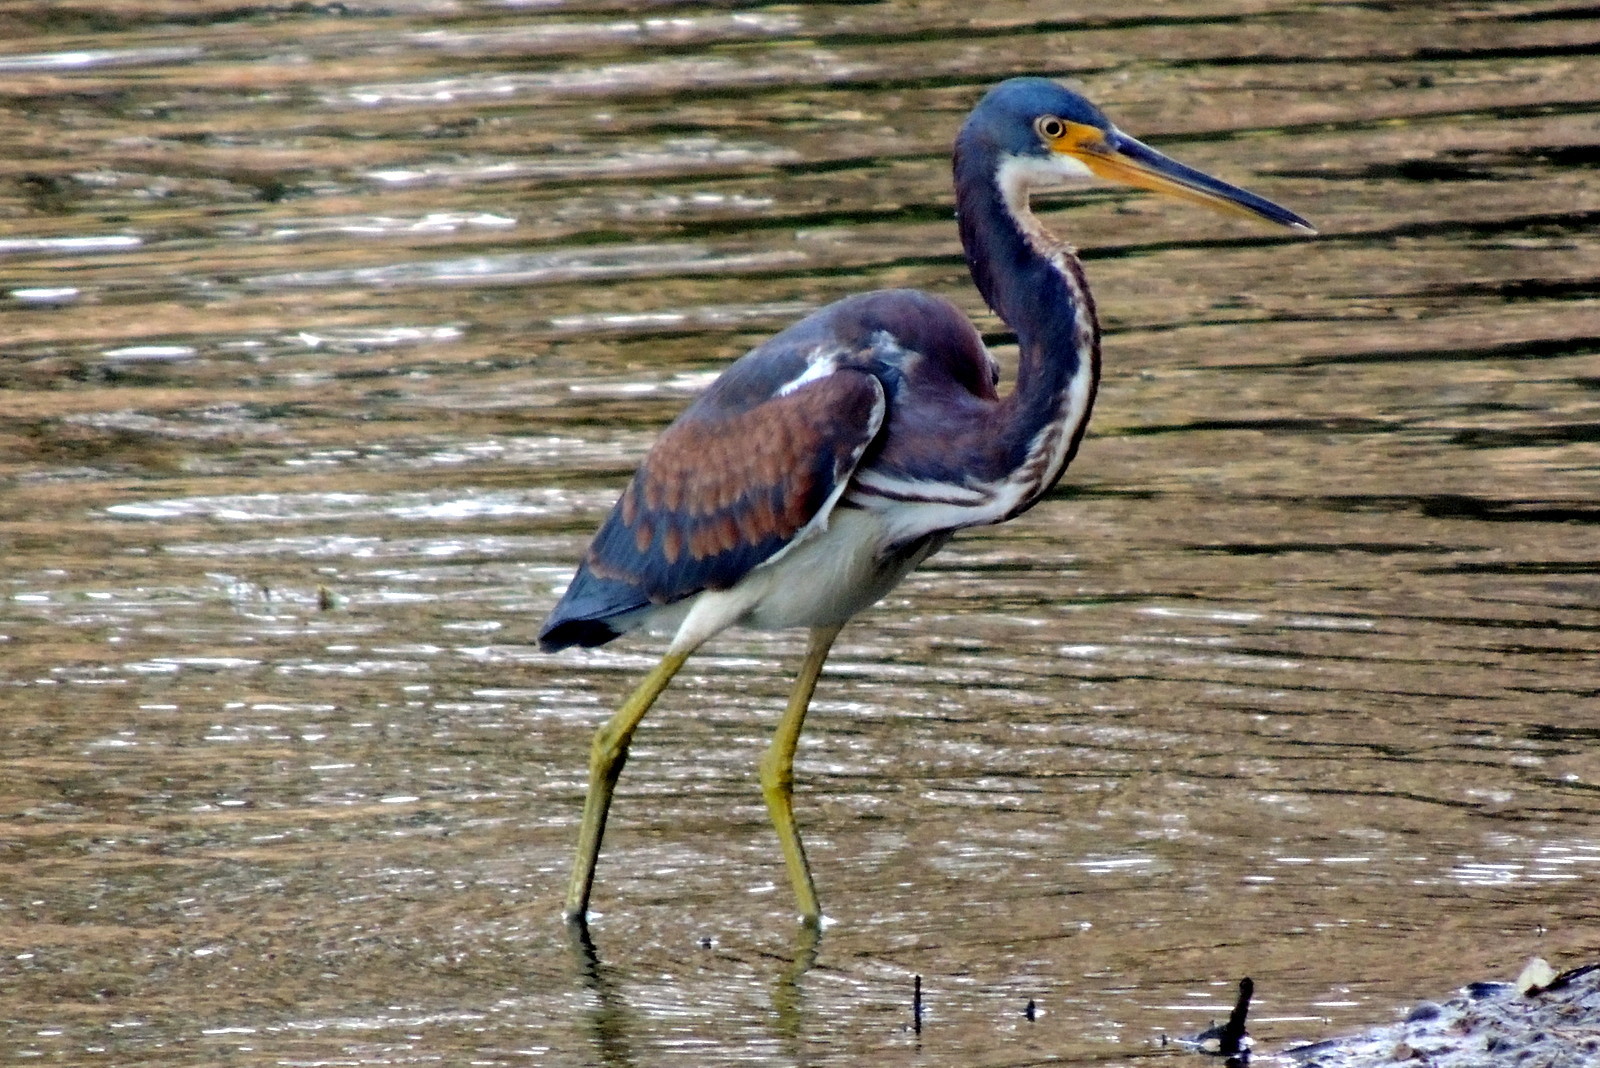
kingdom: Animalia
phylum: Chordata
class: Aves
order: Pelecaniformes
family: Ardeidae
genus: Egretta
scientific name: Egretta tricolor
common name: Tricolored heron
